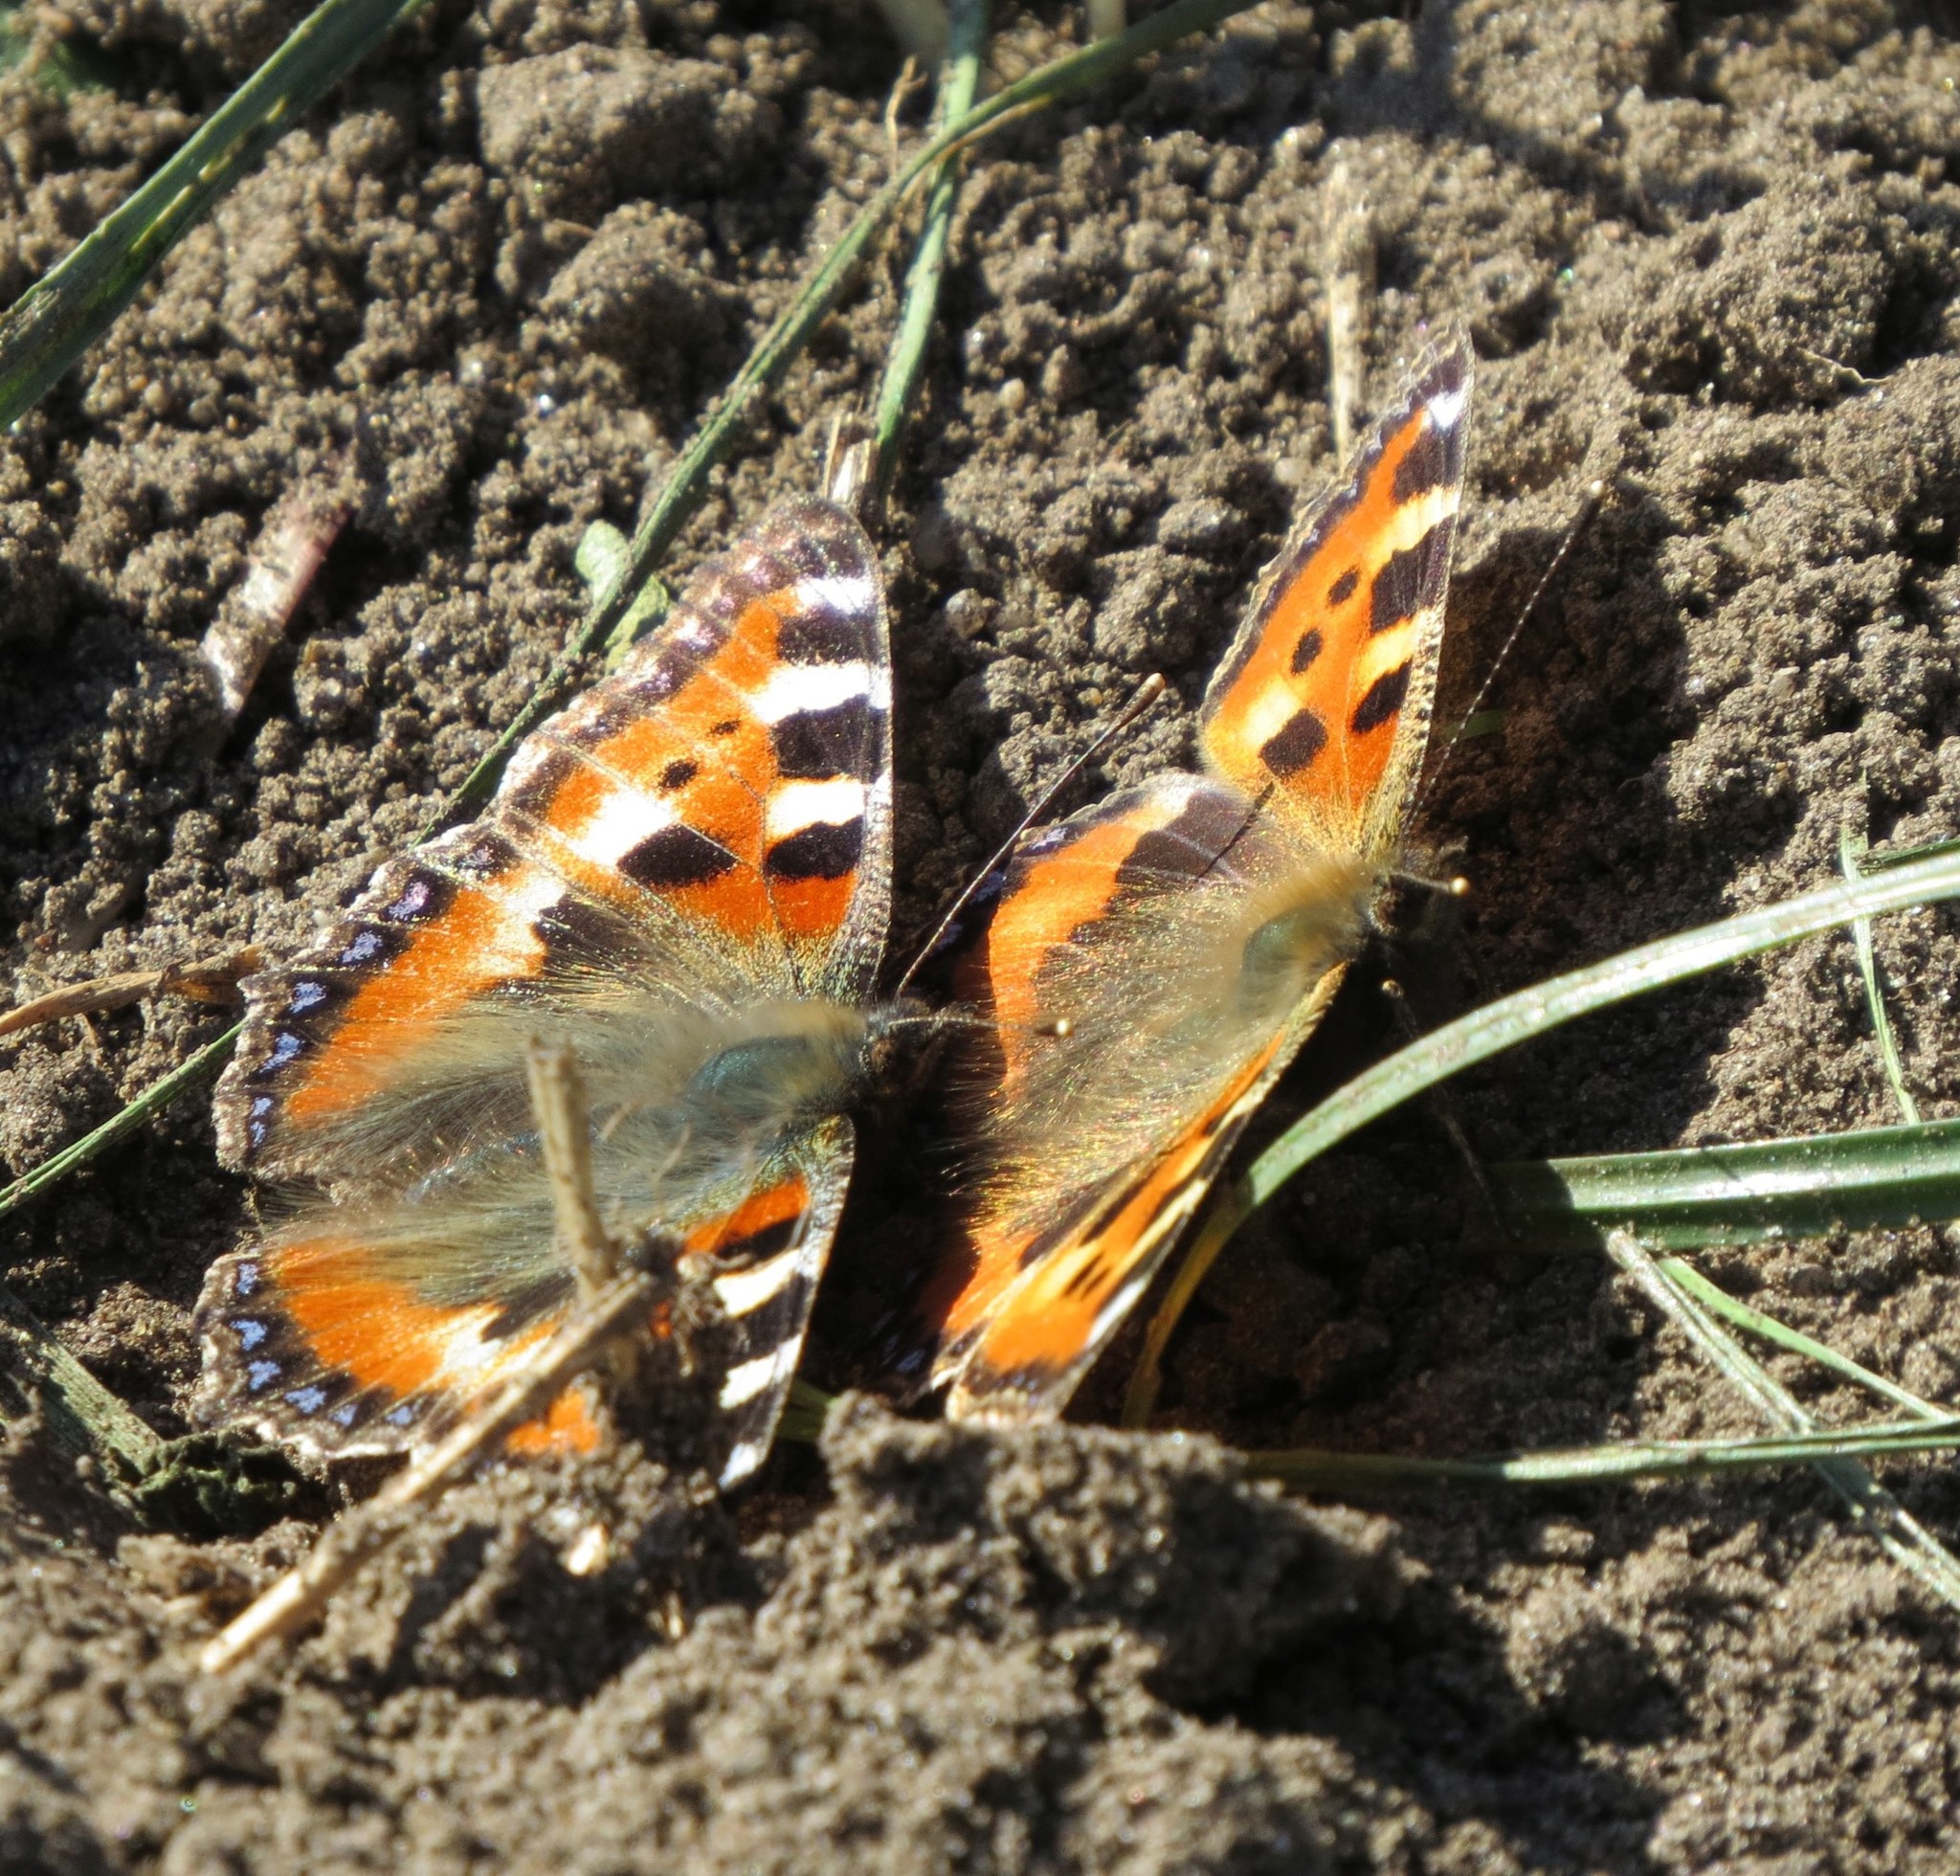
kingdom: Animalia
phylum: Arthropoda
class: Insecta
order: Lepidoptera
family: Nymphalidae
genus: Aglais
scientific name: Aglais urticae
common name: Small tortoiseshell
